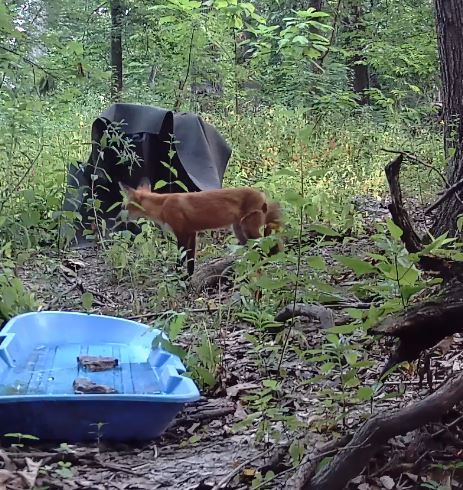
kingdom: Animalia
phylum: Chordata
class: Mammalia
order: Carnivora
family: Canidae
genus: Vulpes
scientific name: Vulpes vulpes
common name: Red fox
